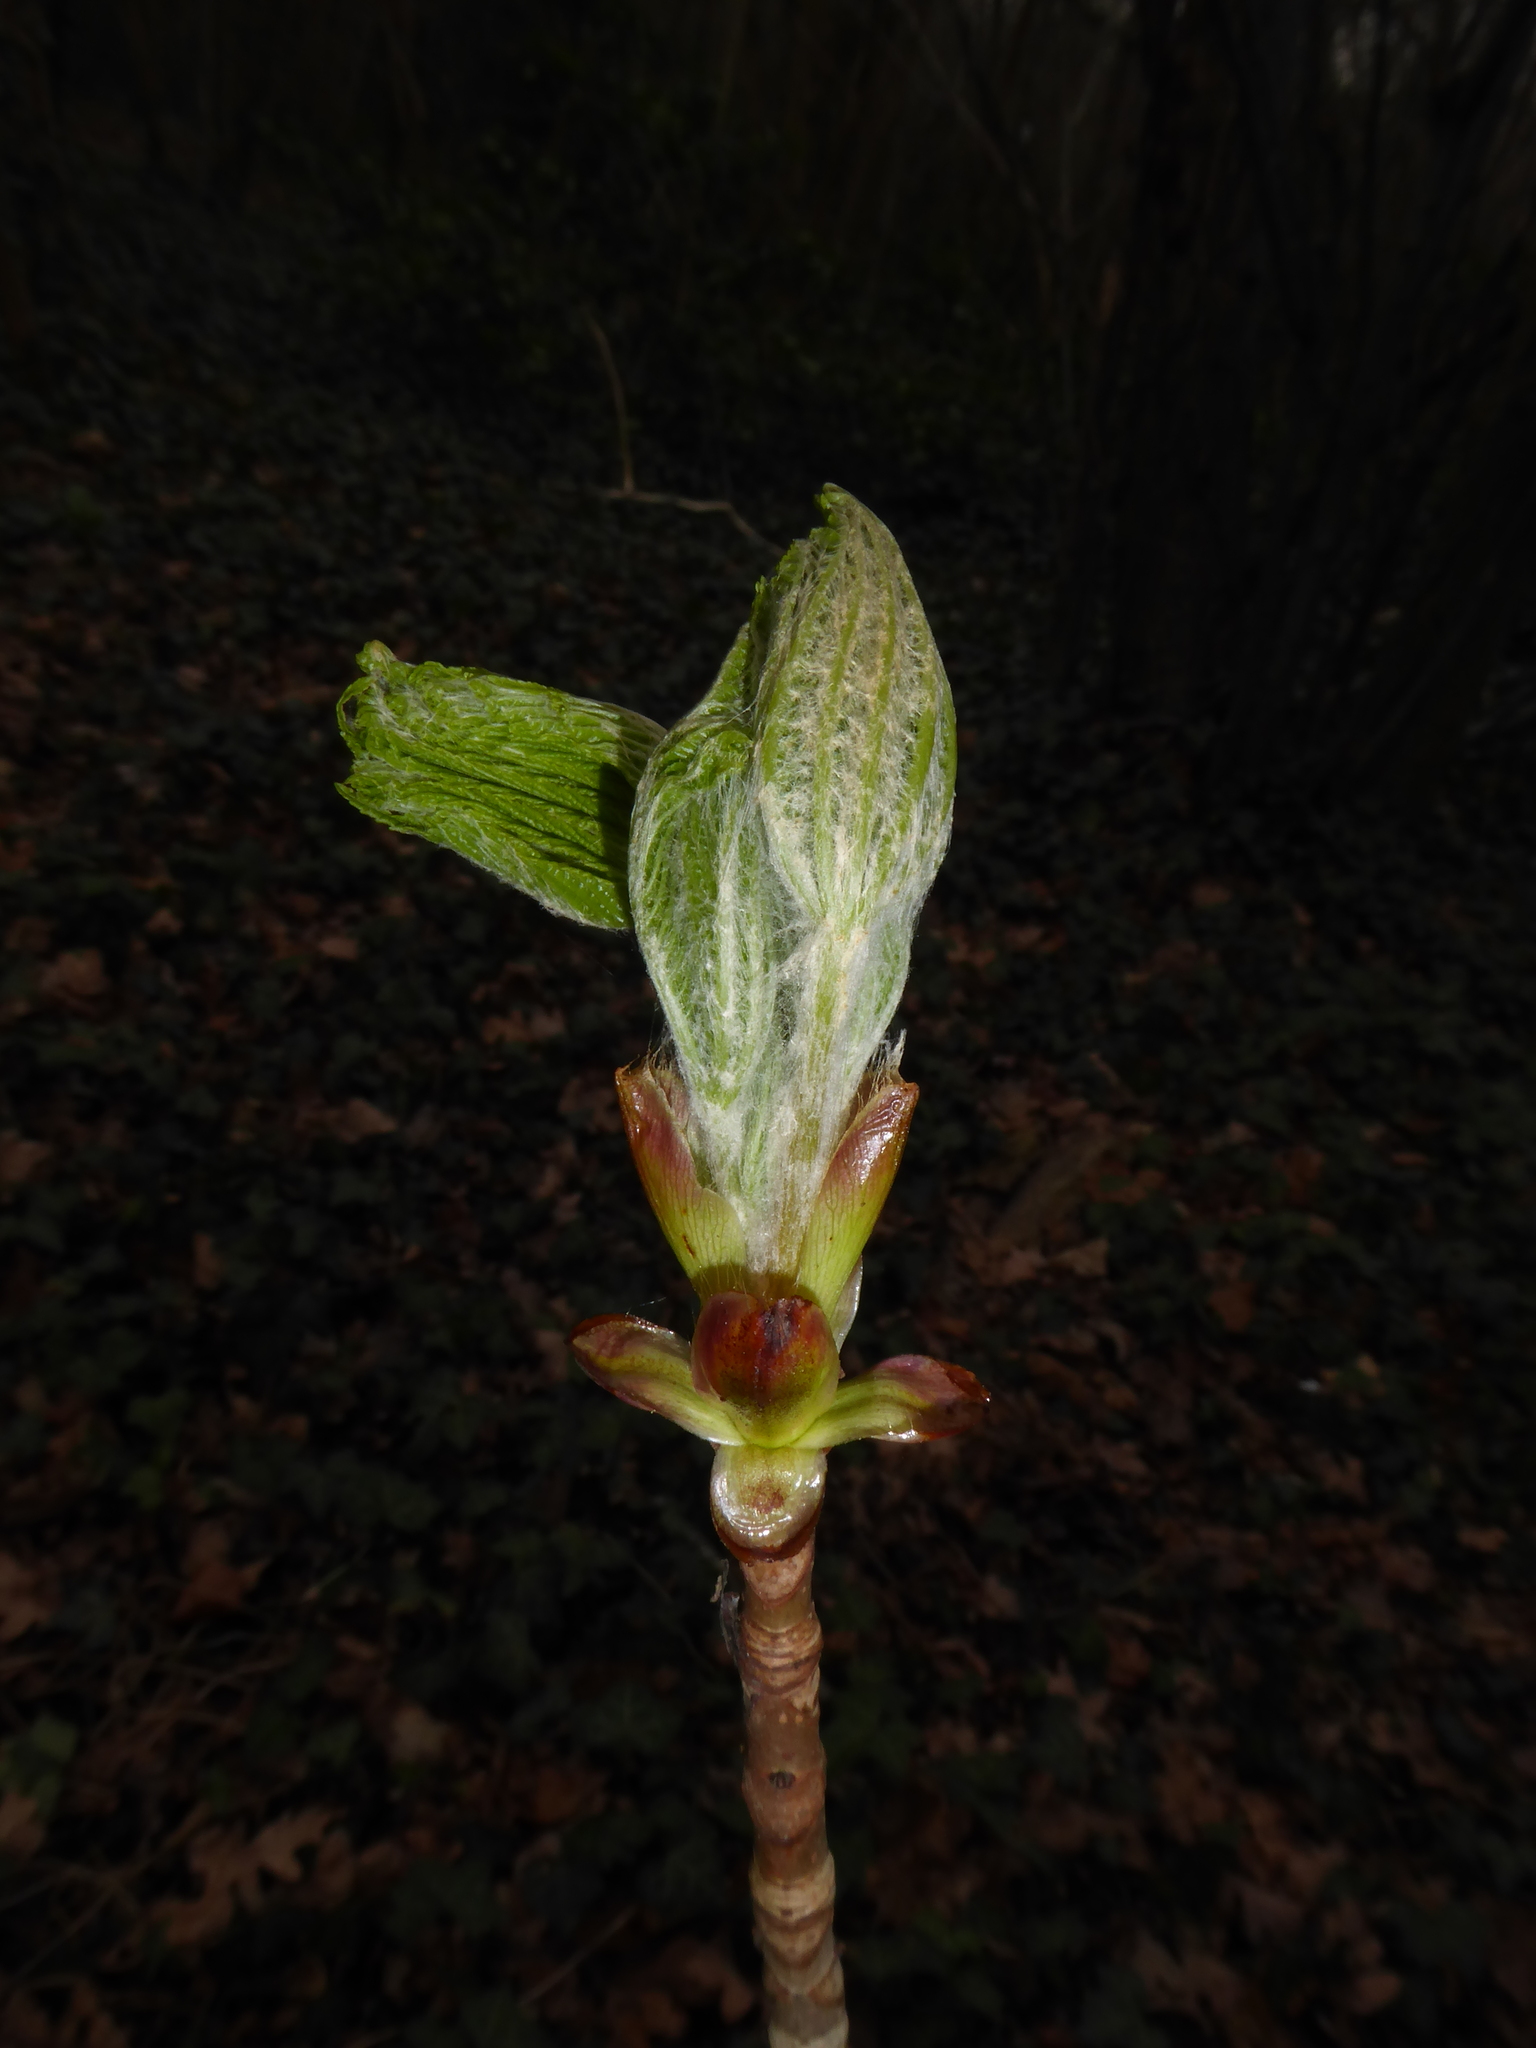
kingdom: Plantae
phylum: Tracheophyta
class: Magnoliopsida
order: Sapindales
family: Sapindaceae
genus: Aesculus
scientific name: Aesculus hippocastanum
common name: Horse-chestnut
